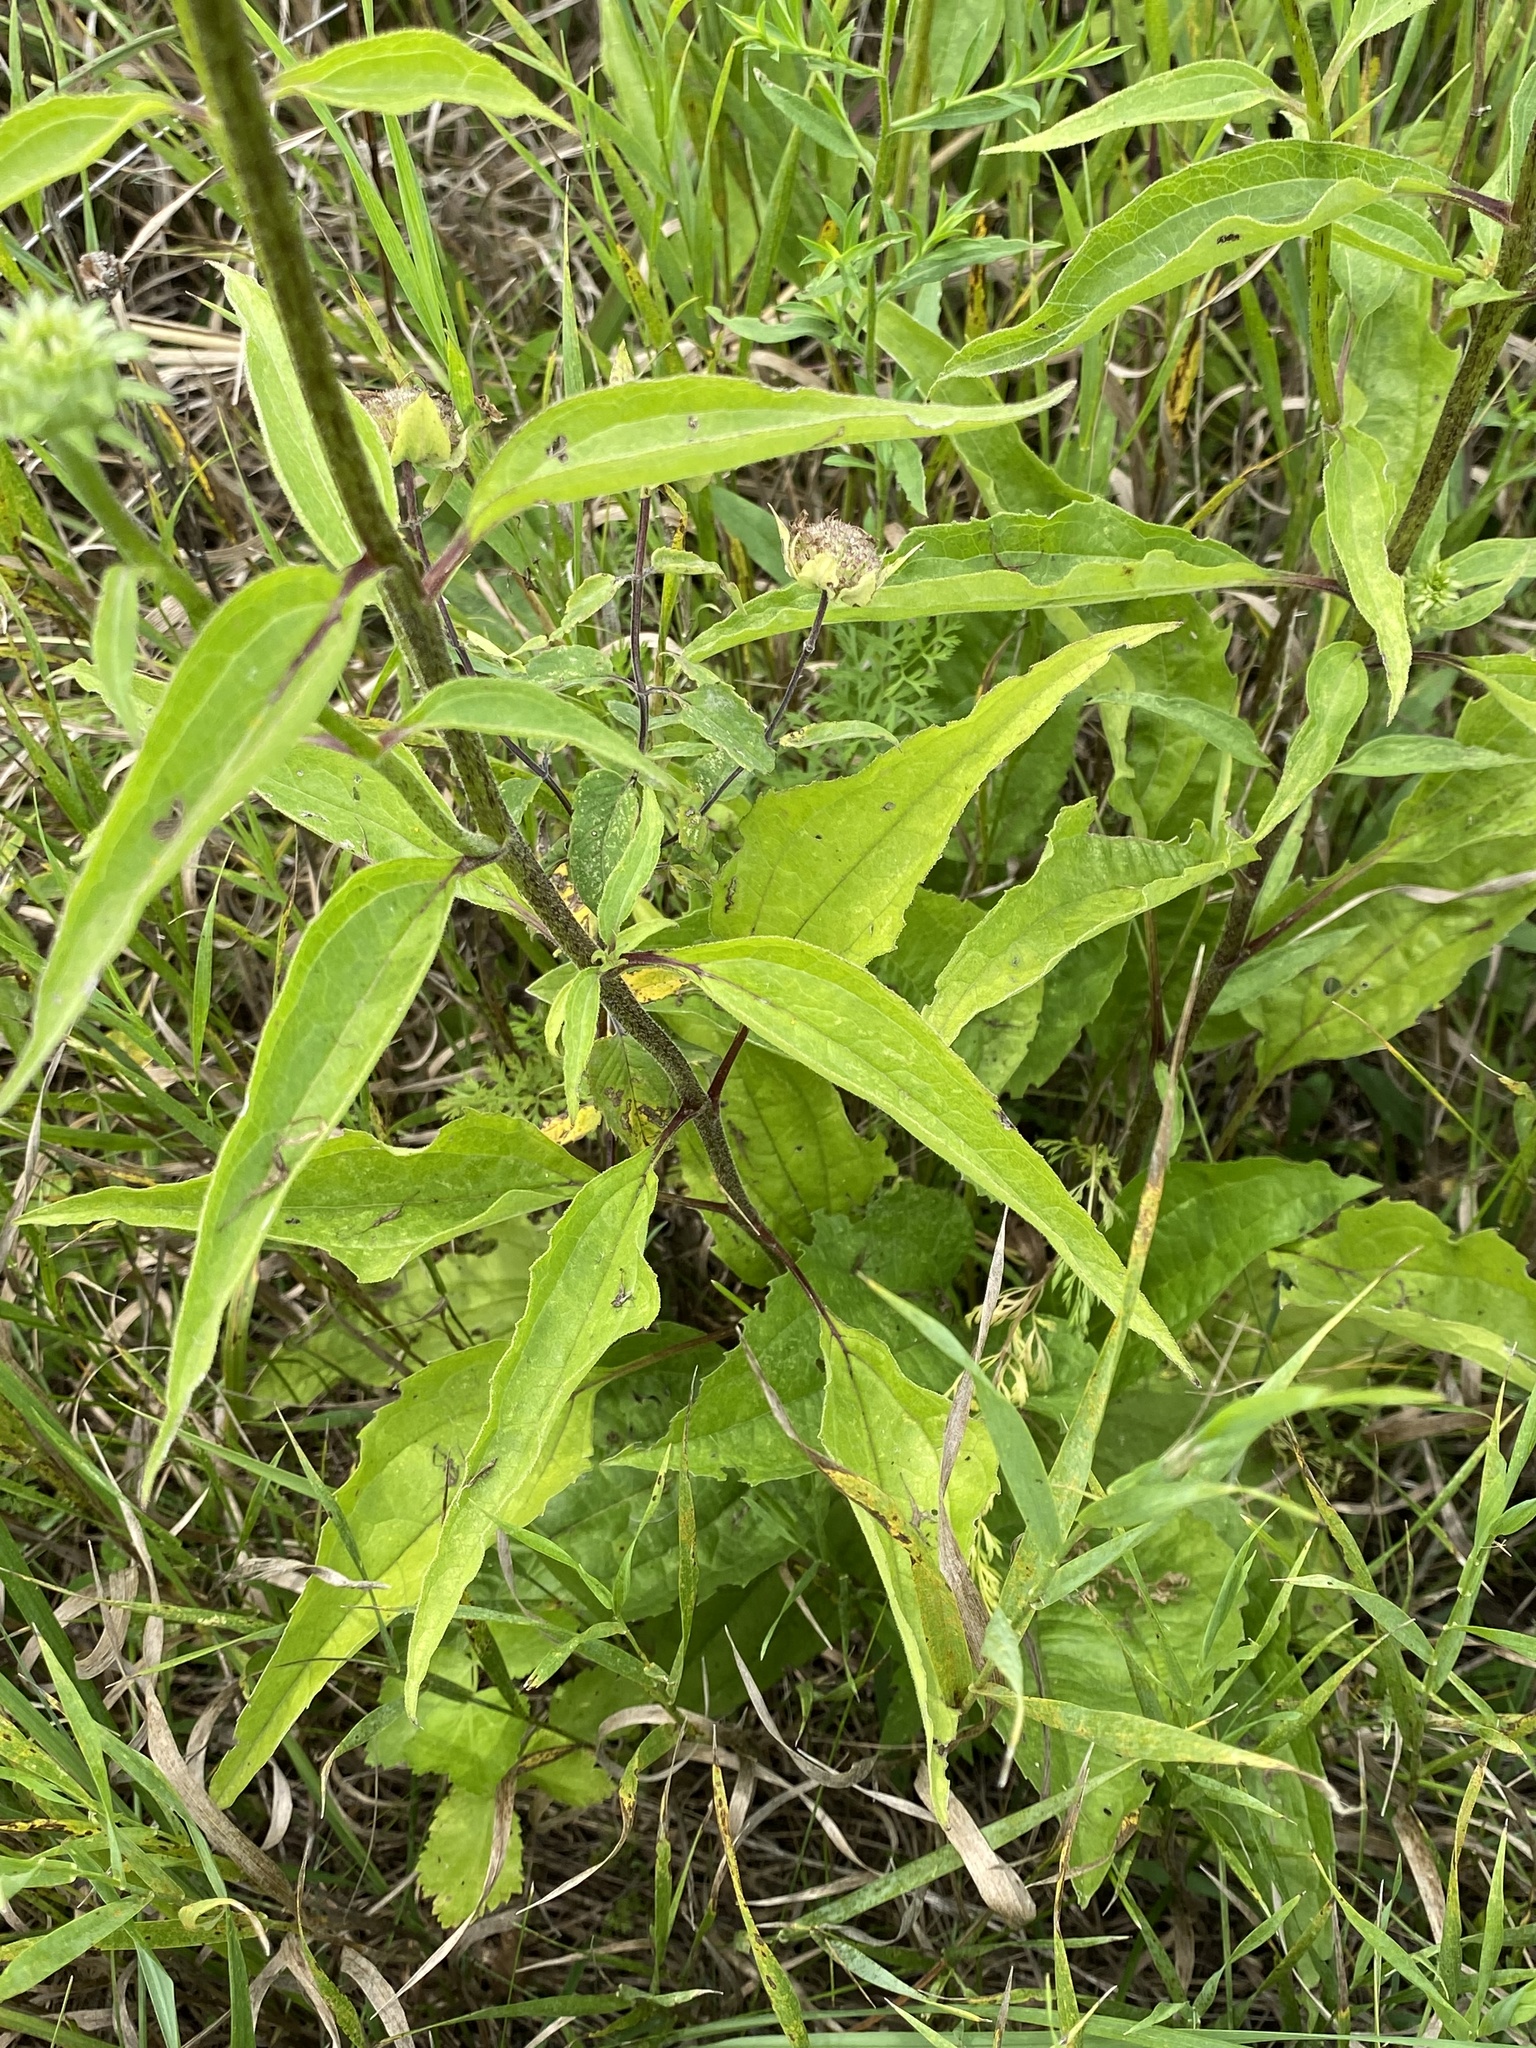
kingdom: Plantae
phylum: Tracheophyta
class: Magnoliopsida
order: Asterales
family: Asteraceae
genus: Echinacea
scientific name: Echinacea purpurea
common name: Broad-leaved purple coneflower
